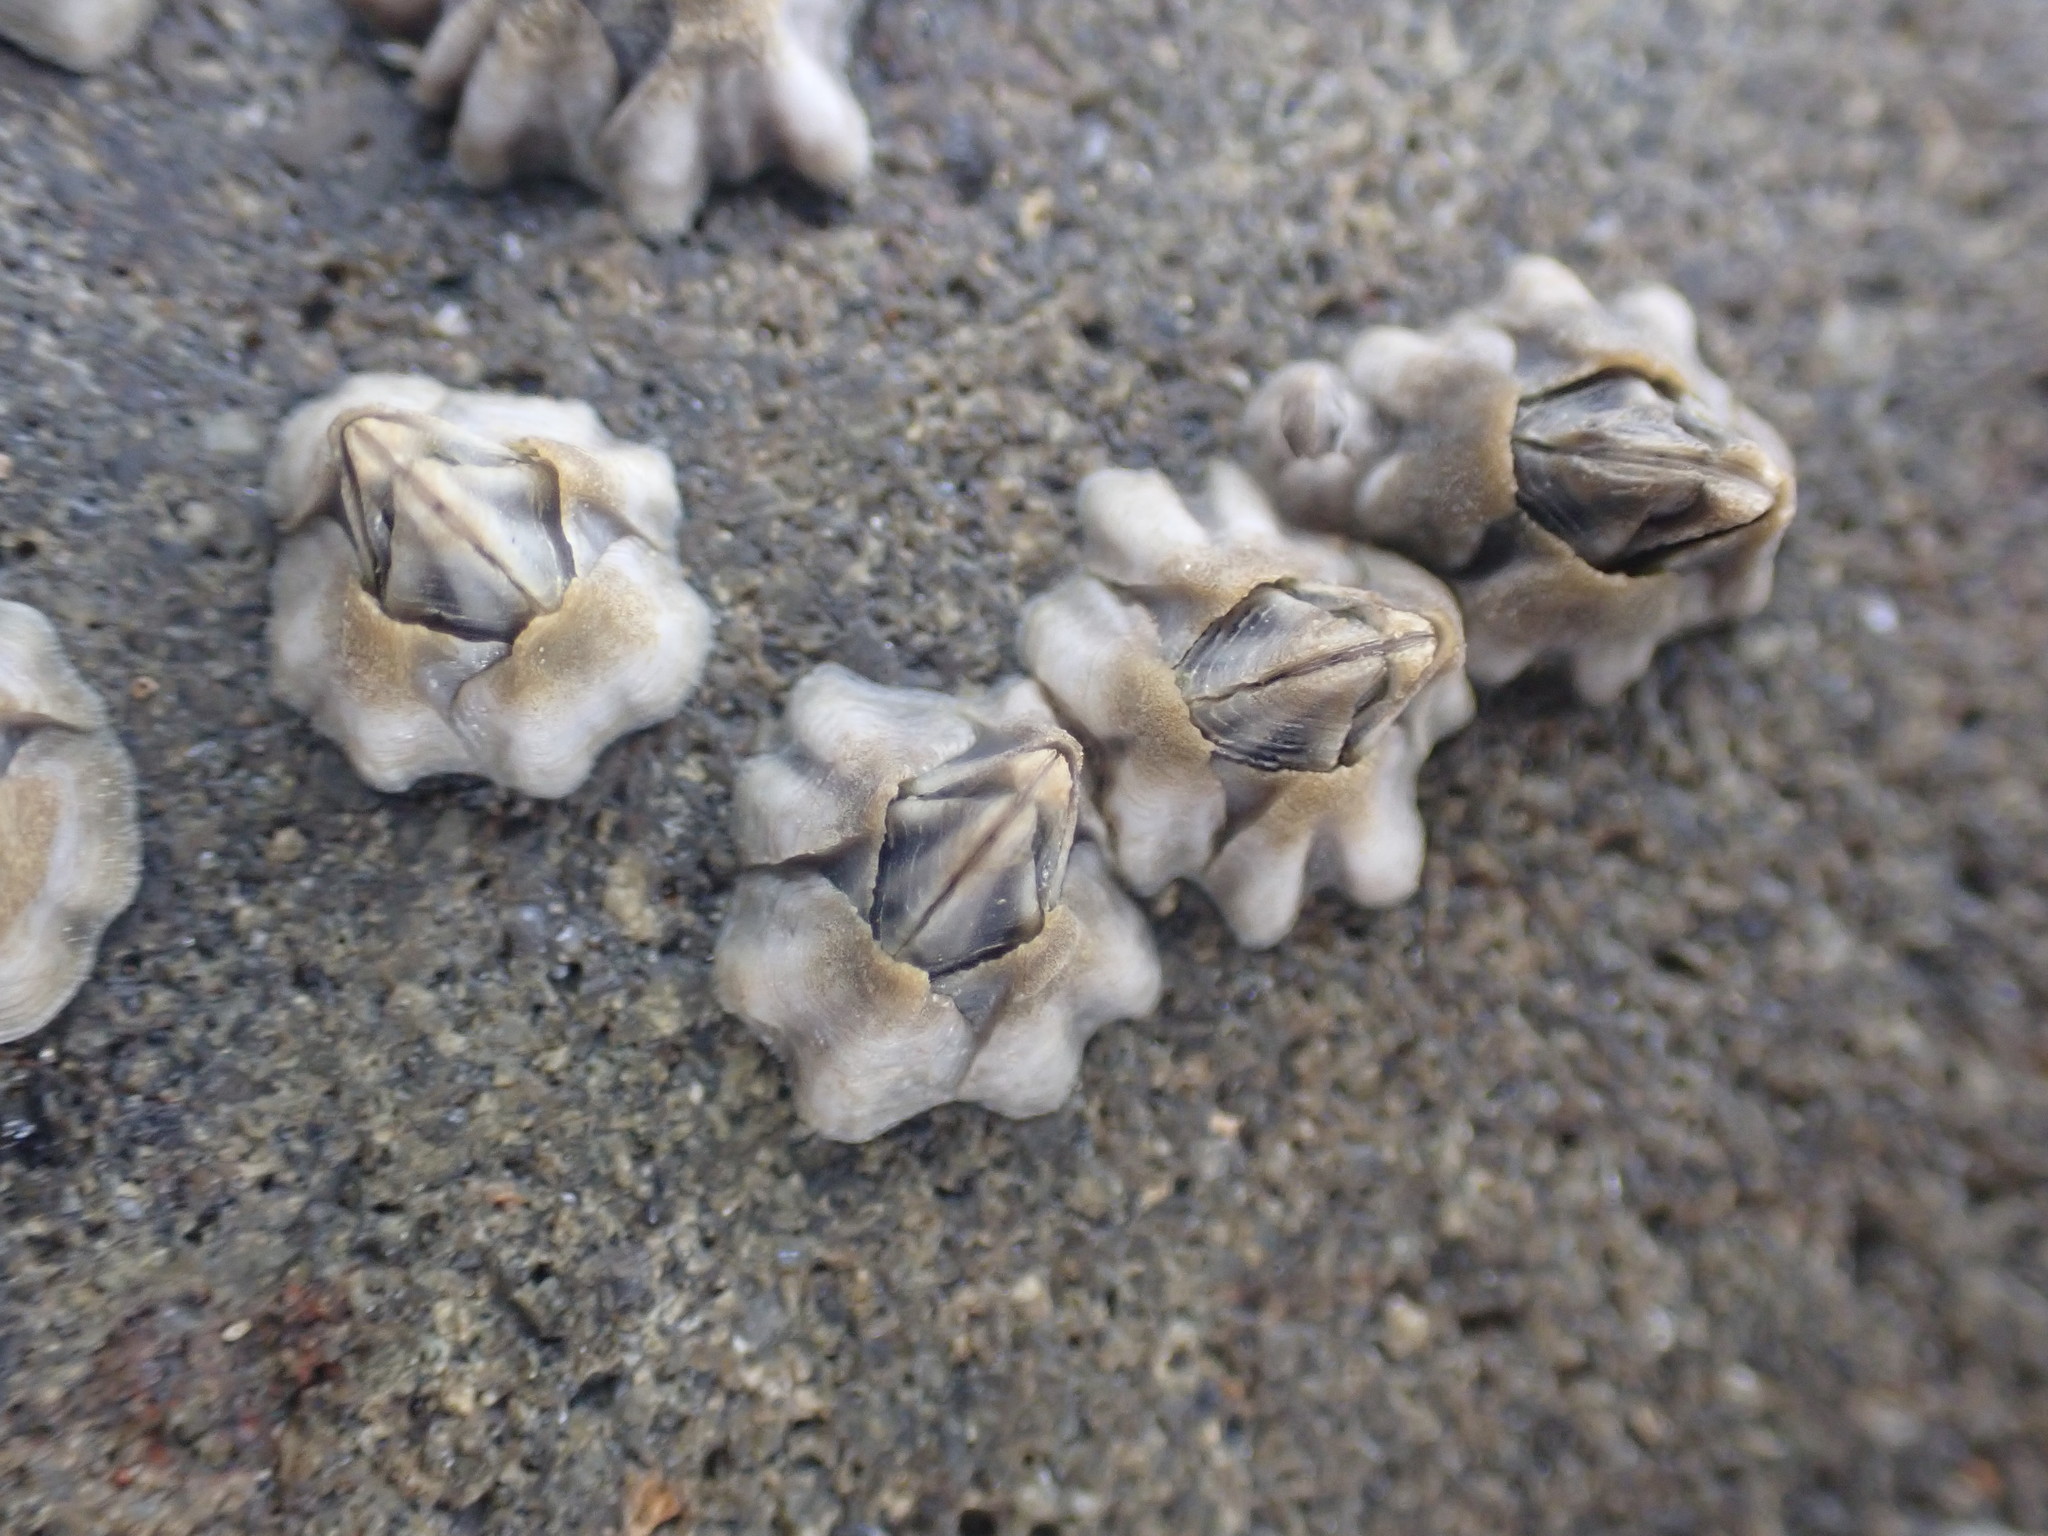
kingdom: Animalia
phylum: Arthropoda
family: Elminiidae
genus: Austrominius
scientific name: Austrominius modestus
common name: Australasian barnacle
